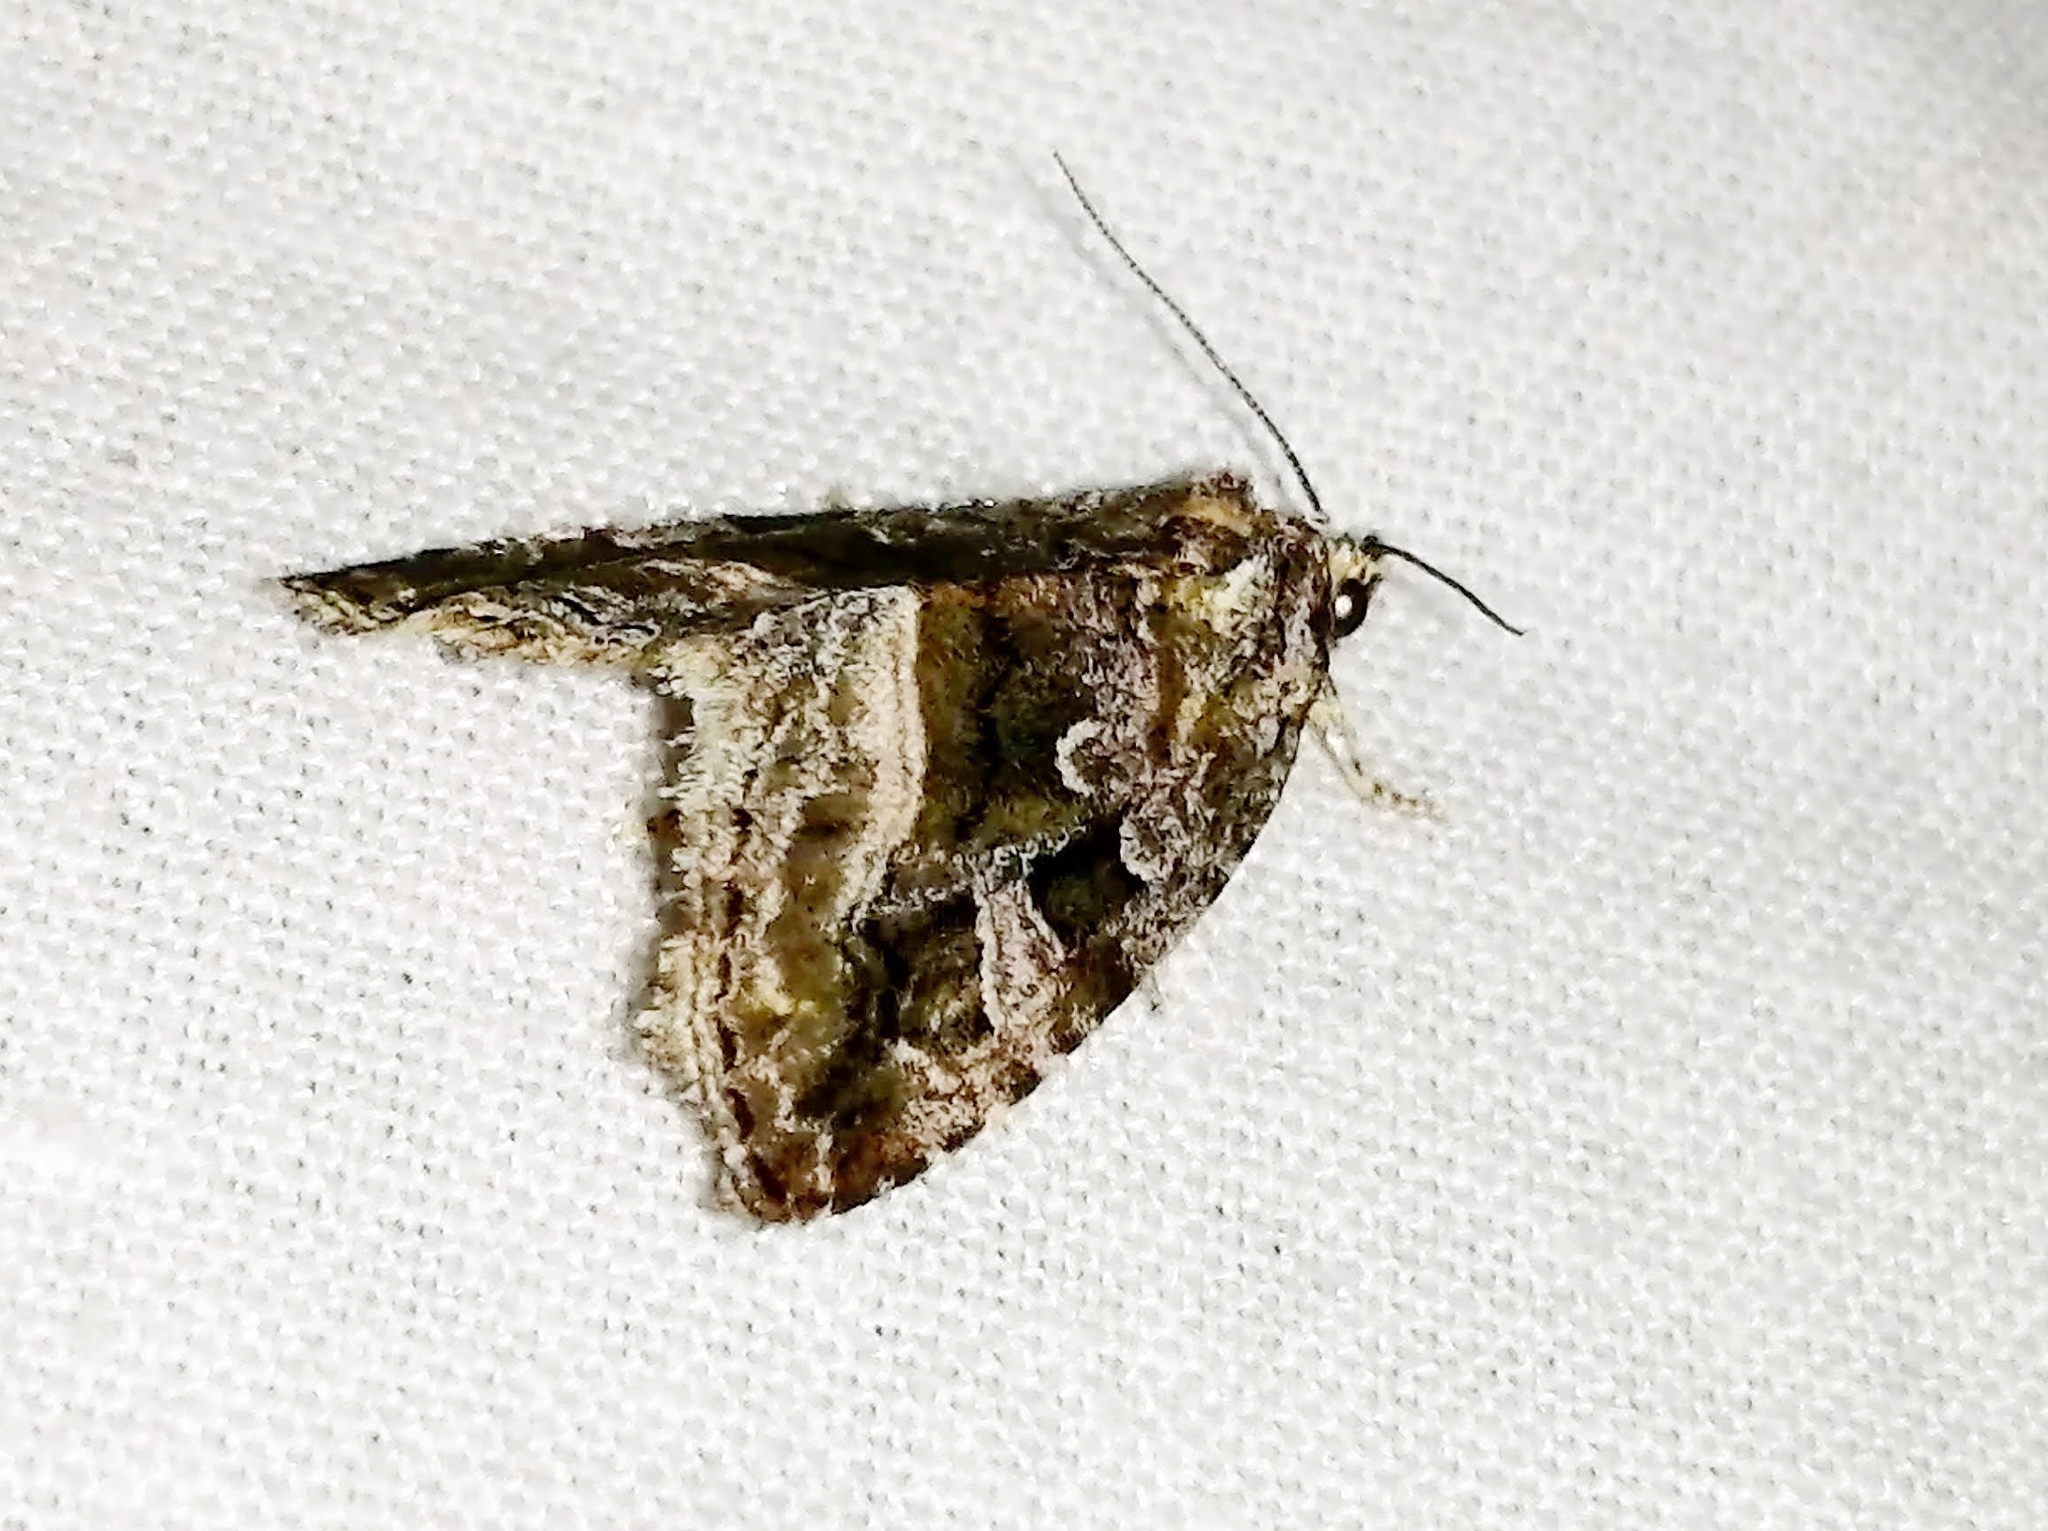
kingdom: Animalia
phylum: Arthropoda
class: Insecta
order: Lepidoptera
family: Noctuidae
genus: Protodeltote
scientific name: Protodeltote muscosula
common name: Large mossy glyph
